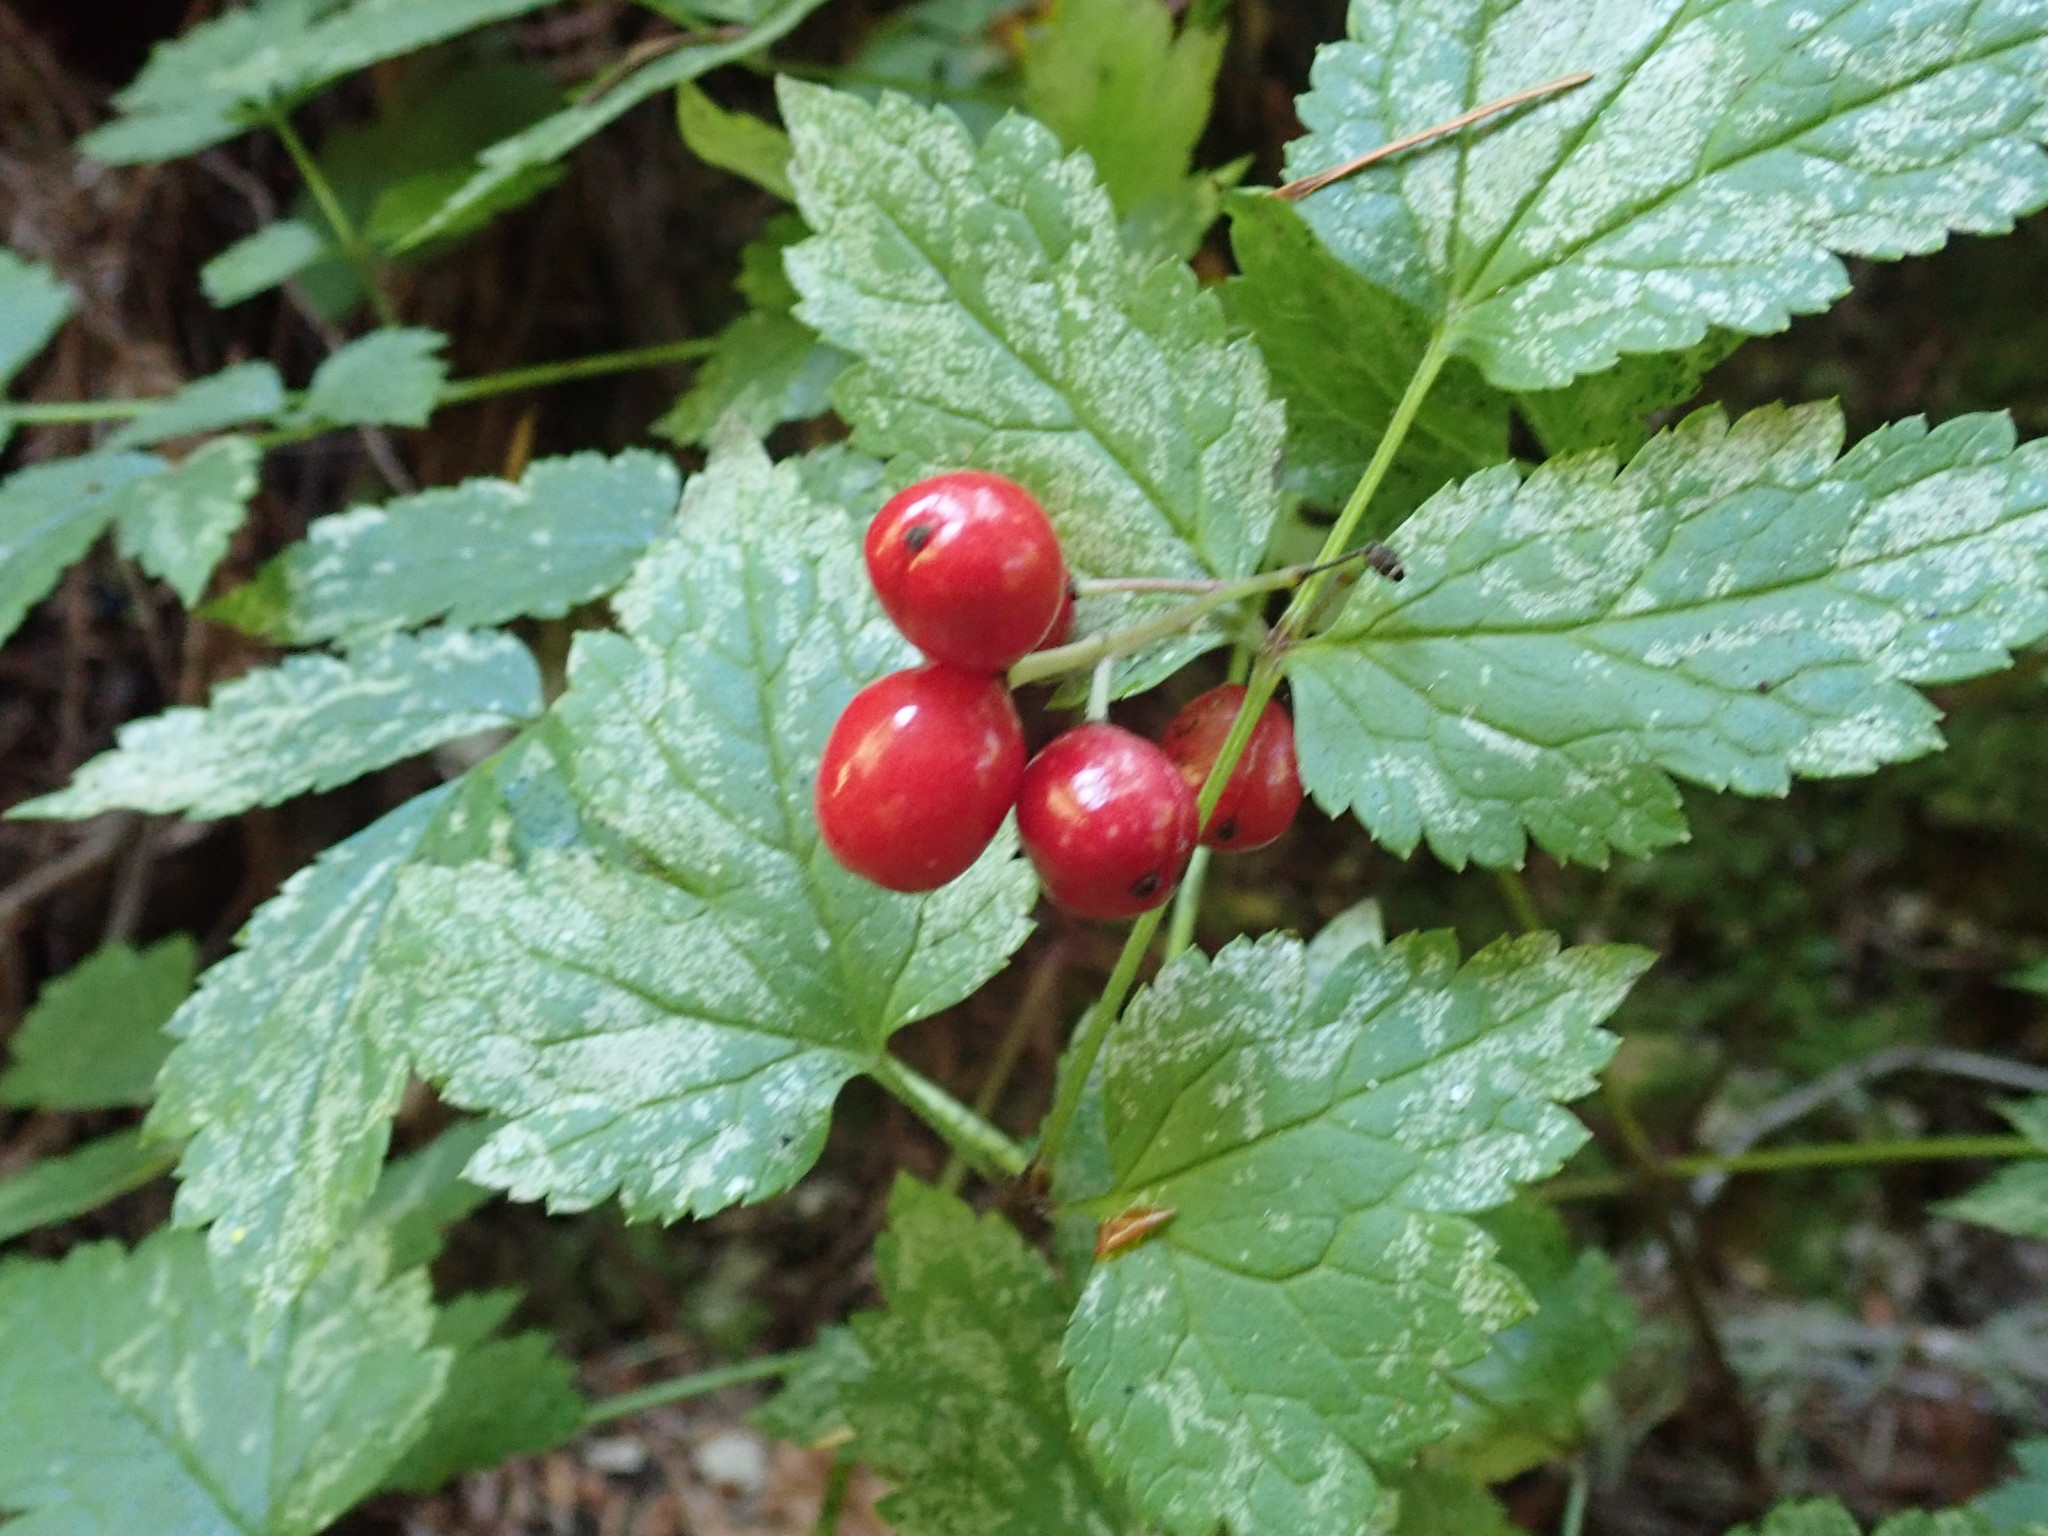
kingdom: Plantae
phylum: Tracheophyta
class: Magnoliopsida
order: Ranunculales
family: Ranunculaceae
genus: Actaea
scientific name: Actaea rubra
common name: Red baneberry
